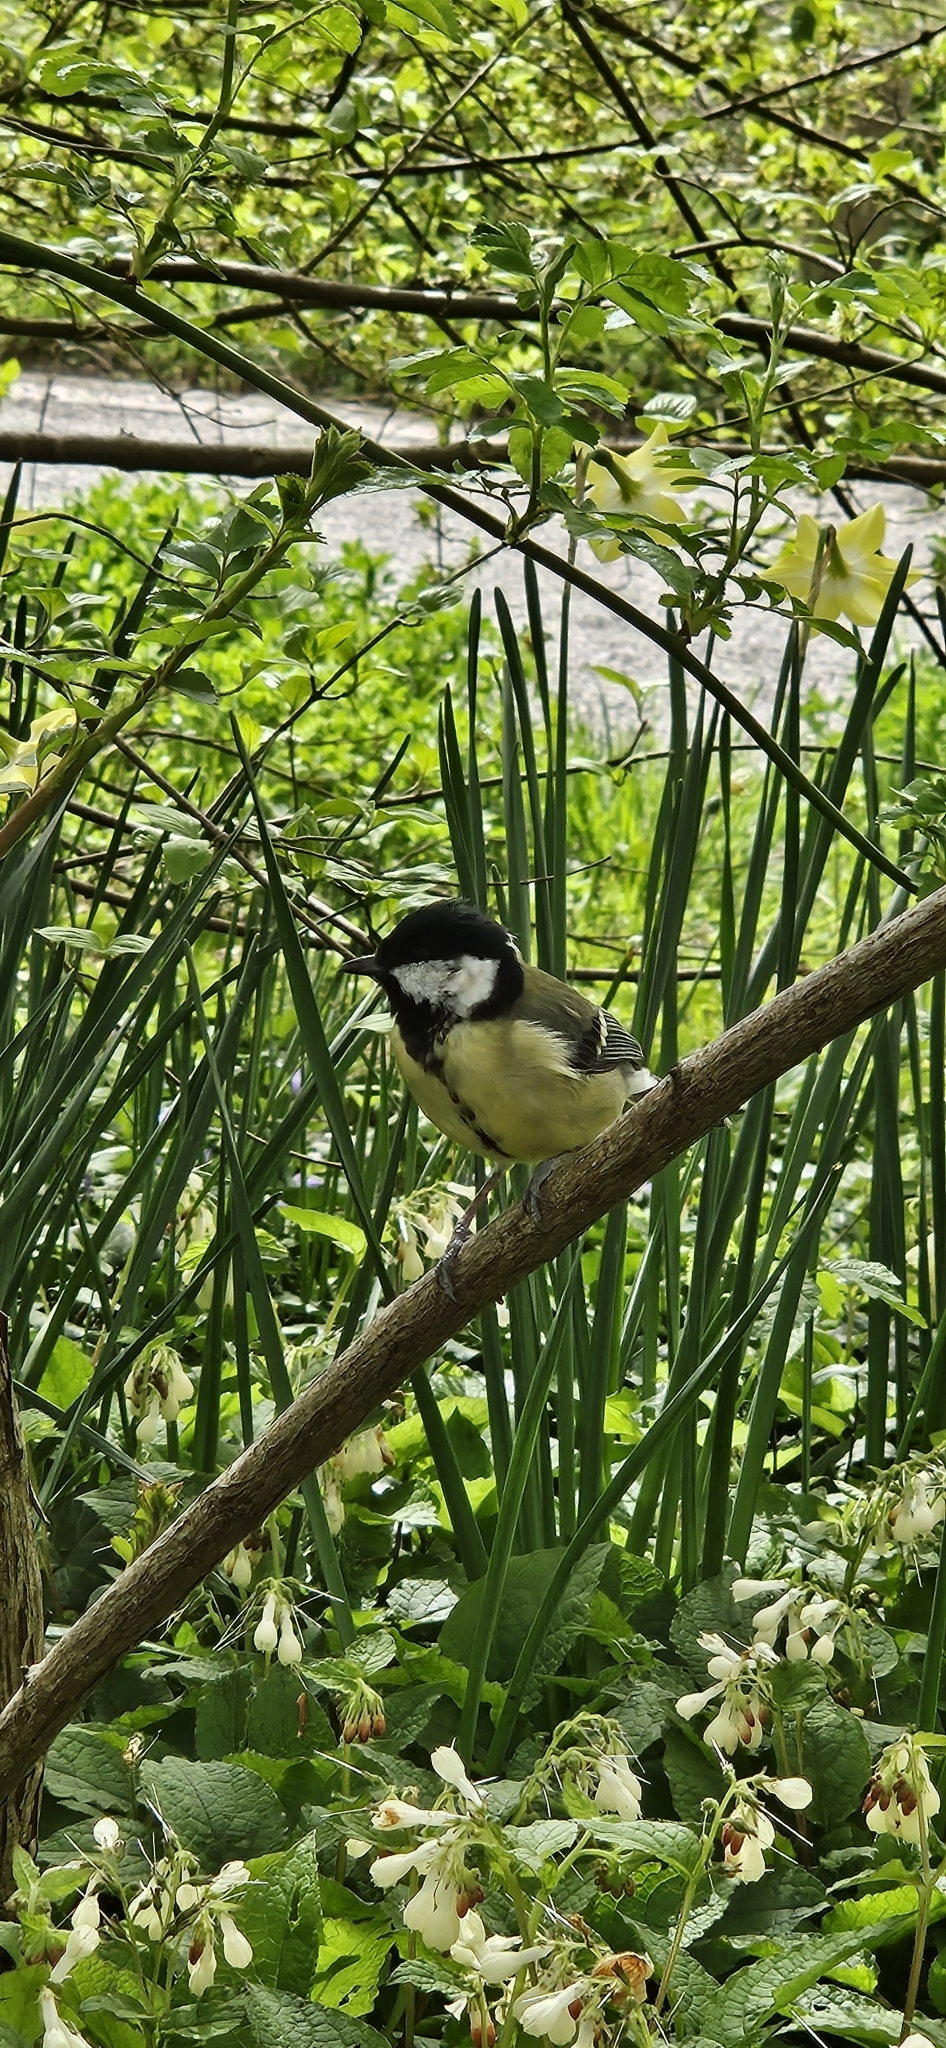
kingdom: Animalia
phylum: Chordata
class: Aves
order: Passeriformes
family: Paridae
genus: Parus
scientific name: Parus major
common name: Great tit
